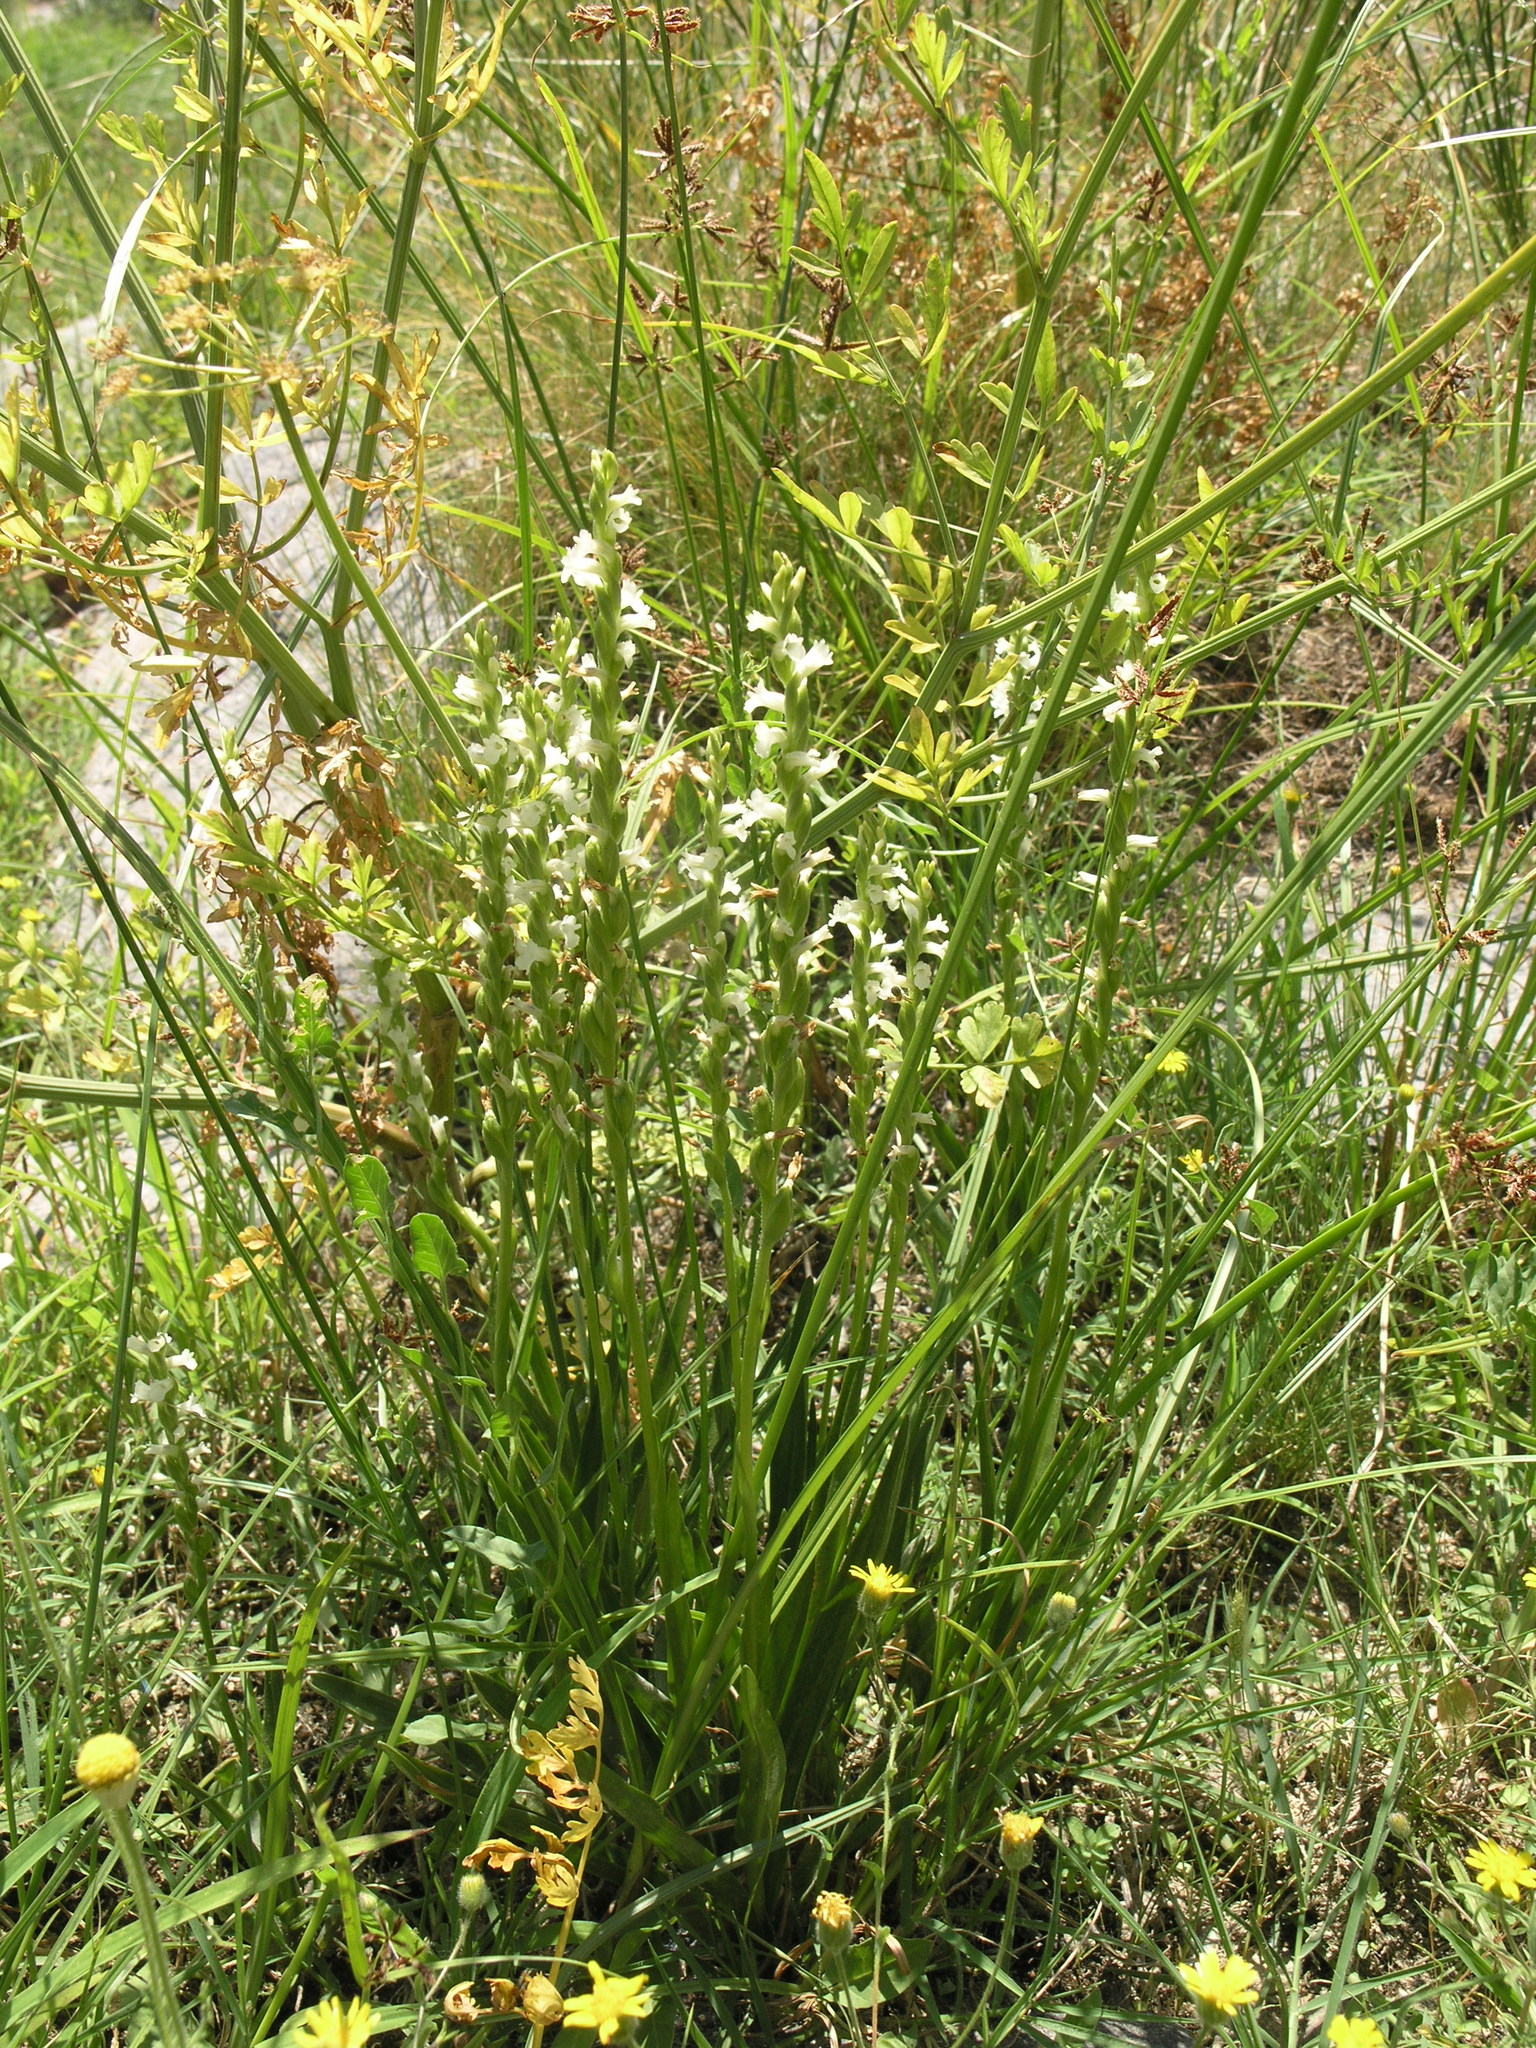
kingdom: Plantae
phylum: Tracheophyta
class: Liliopsida
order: Asparagales
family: Orchidaceae
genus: Spiranthes
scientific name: Spiranthes aestivalis
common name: Summer lady's-tresses
